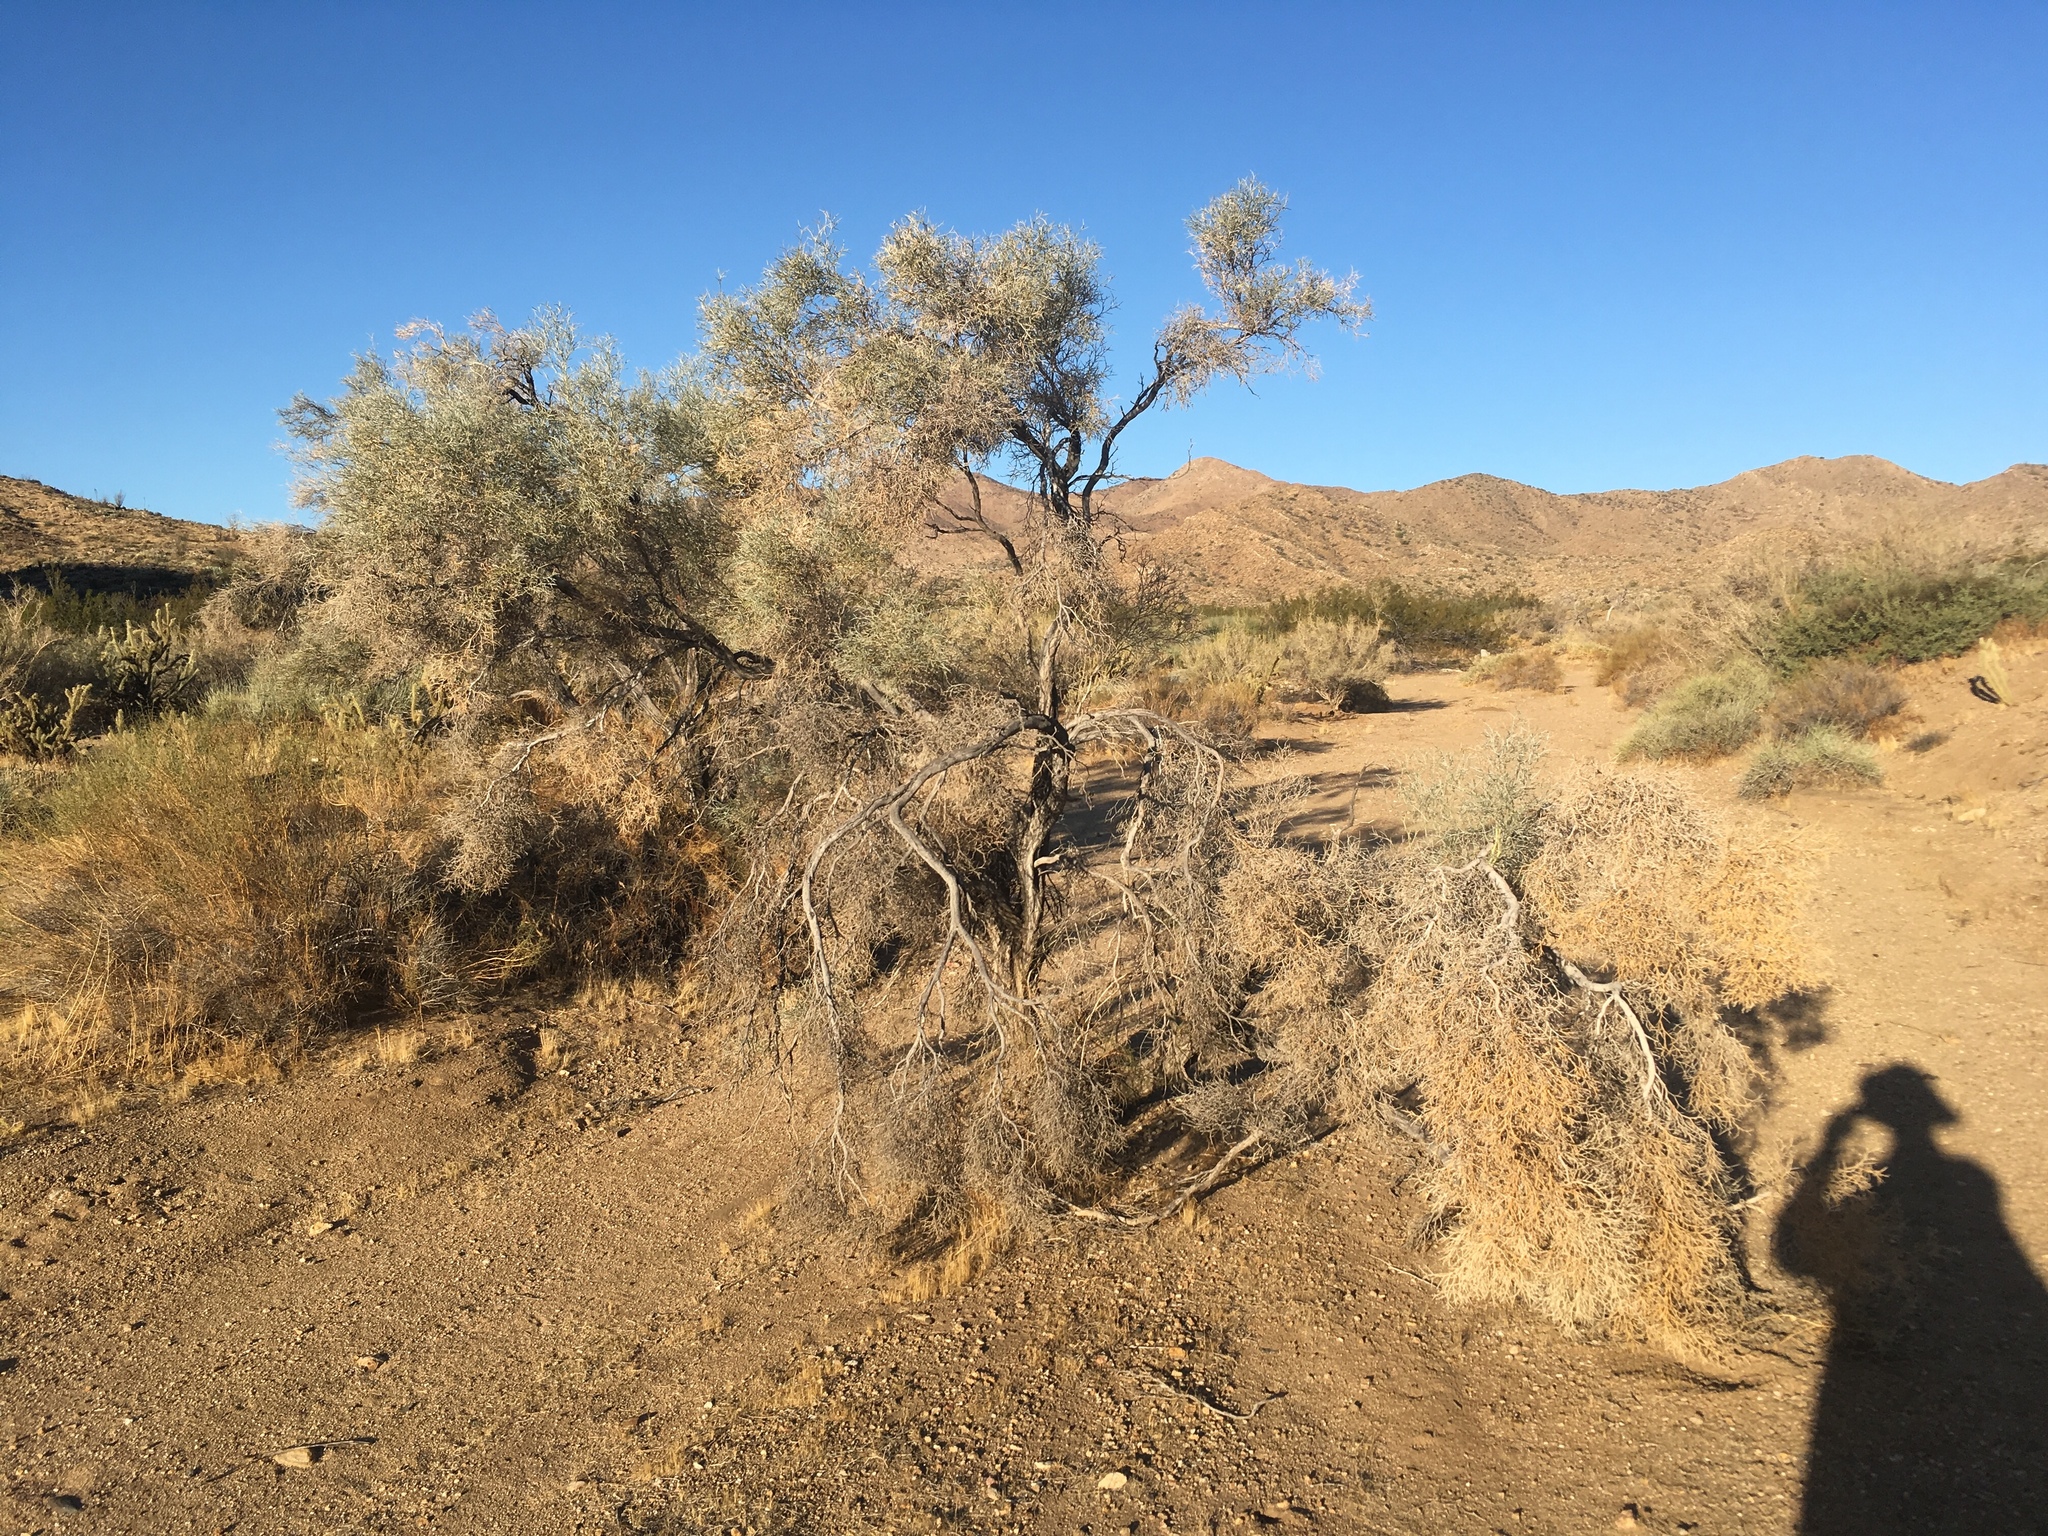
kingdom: Plantae
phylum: Tracheophyta
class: Magnoliopsida
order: Fabales
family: Fabaceae
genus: Psorothamnus
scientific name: Psorothamnus spinosus
